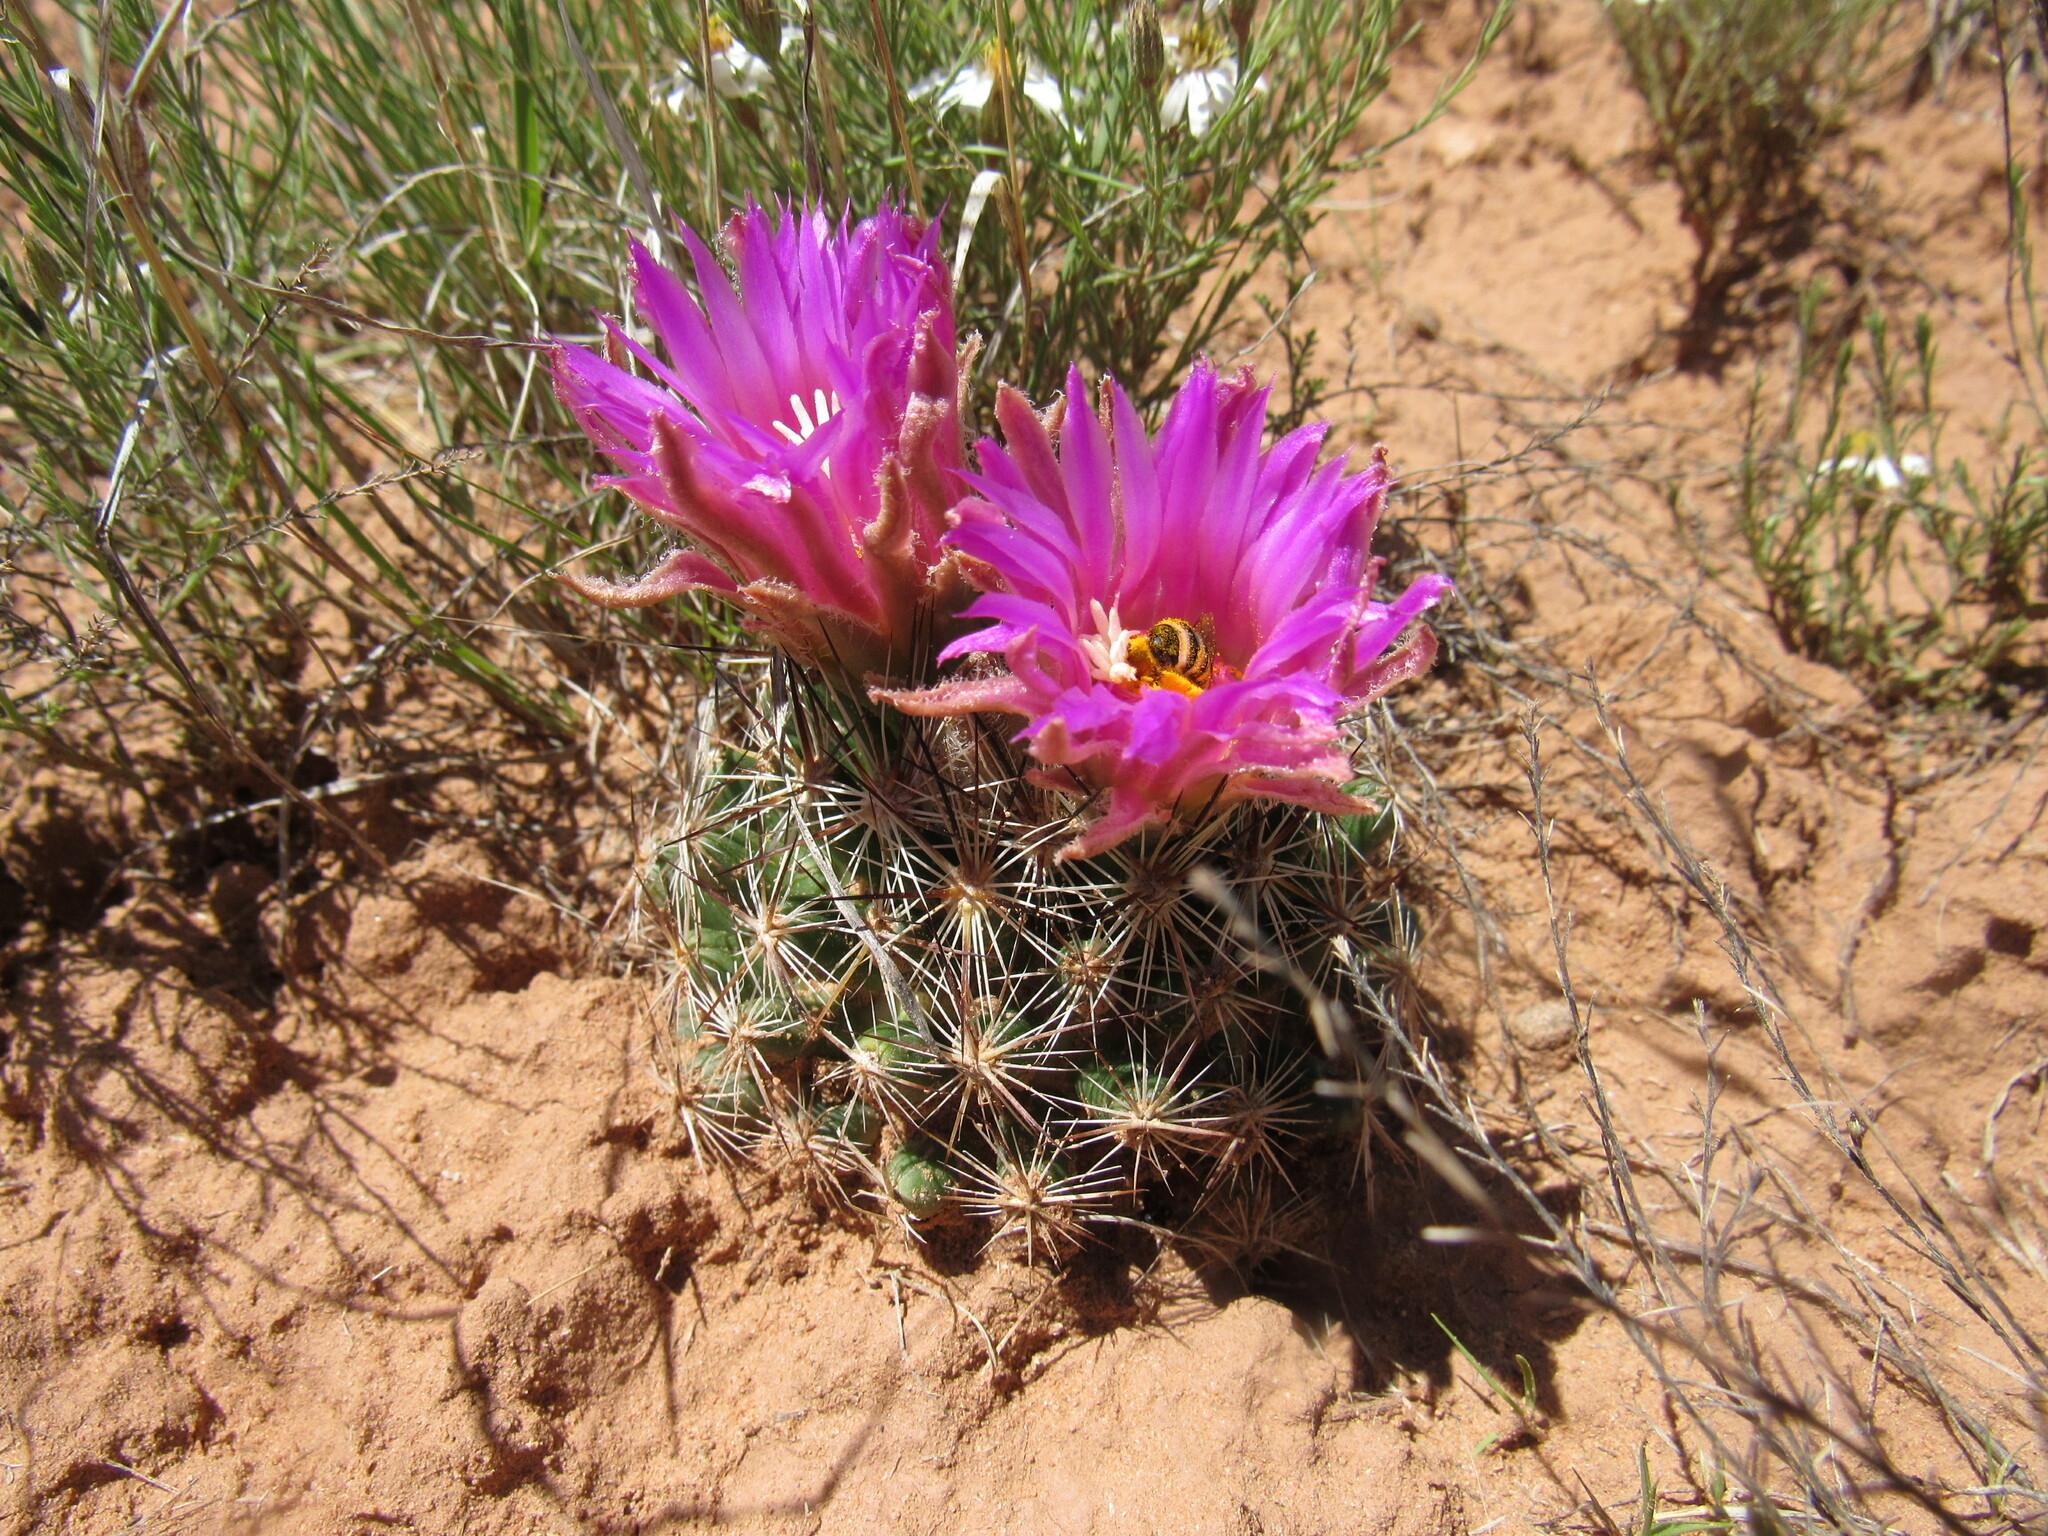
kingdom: Plantae
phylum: Tracheophyta
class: Magnoliopsida
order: Caryophyllales
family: Cactaceae
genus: Pelecyphora
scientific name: Pelecyphora vivipara
